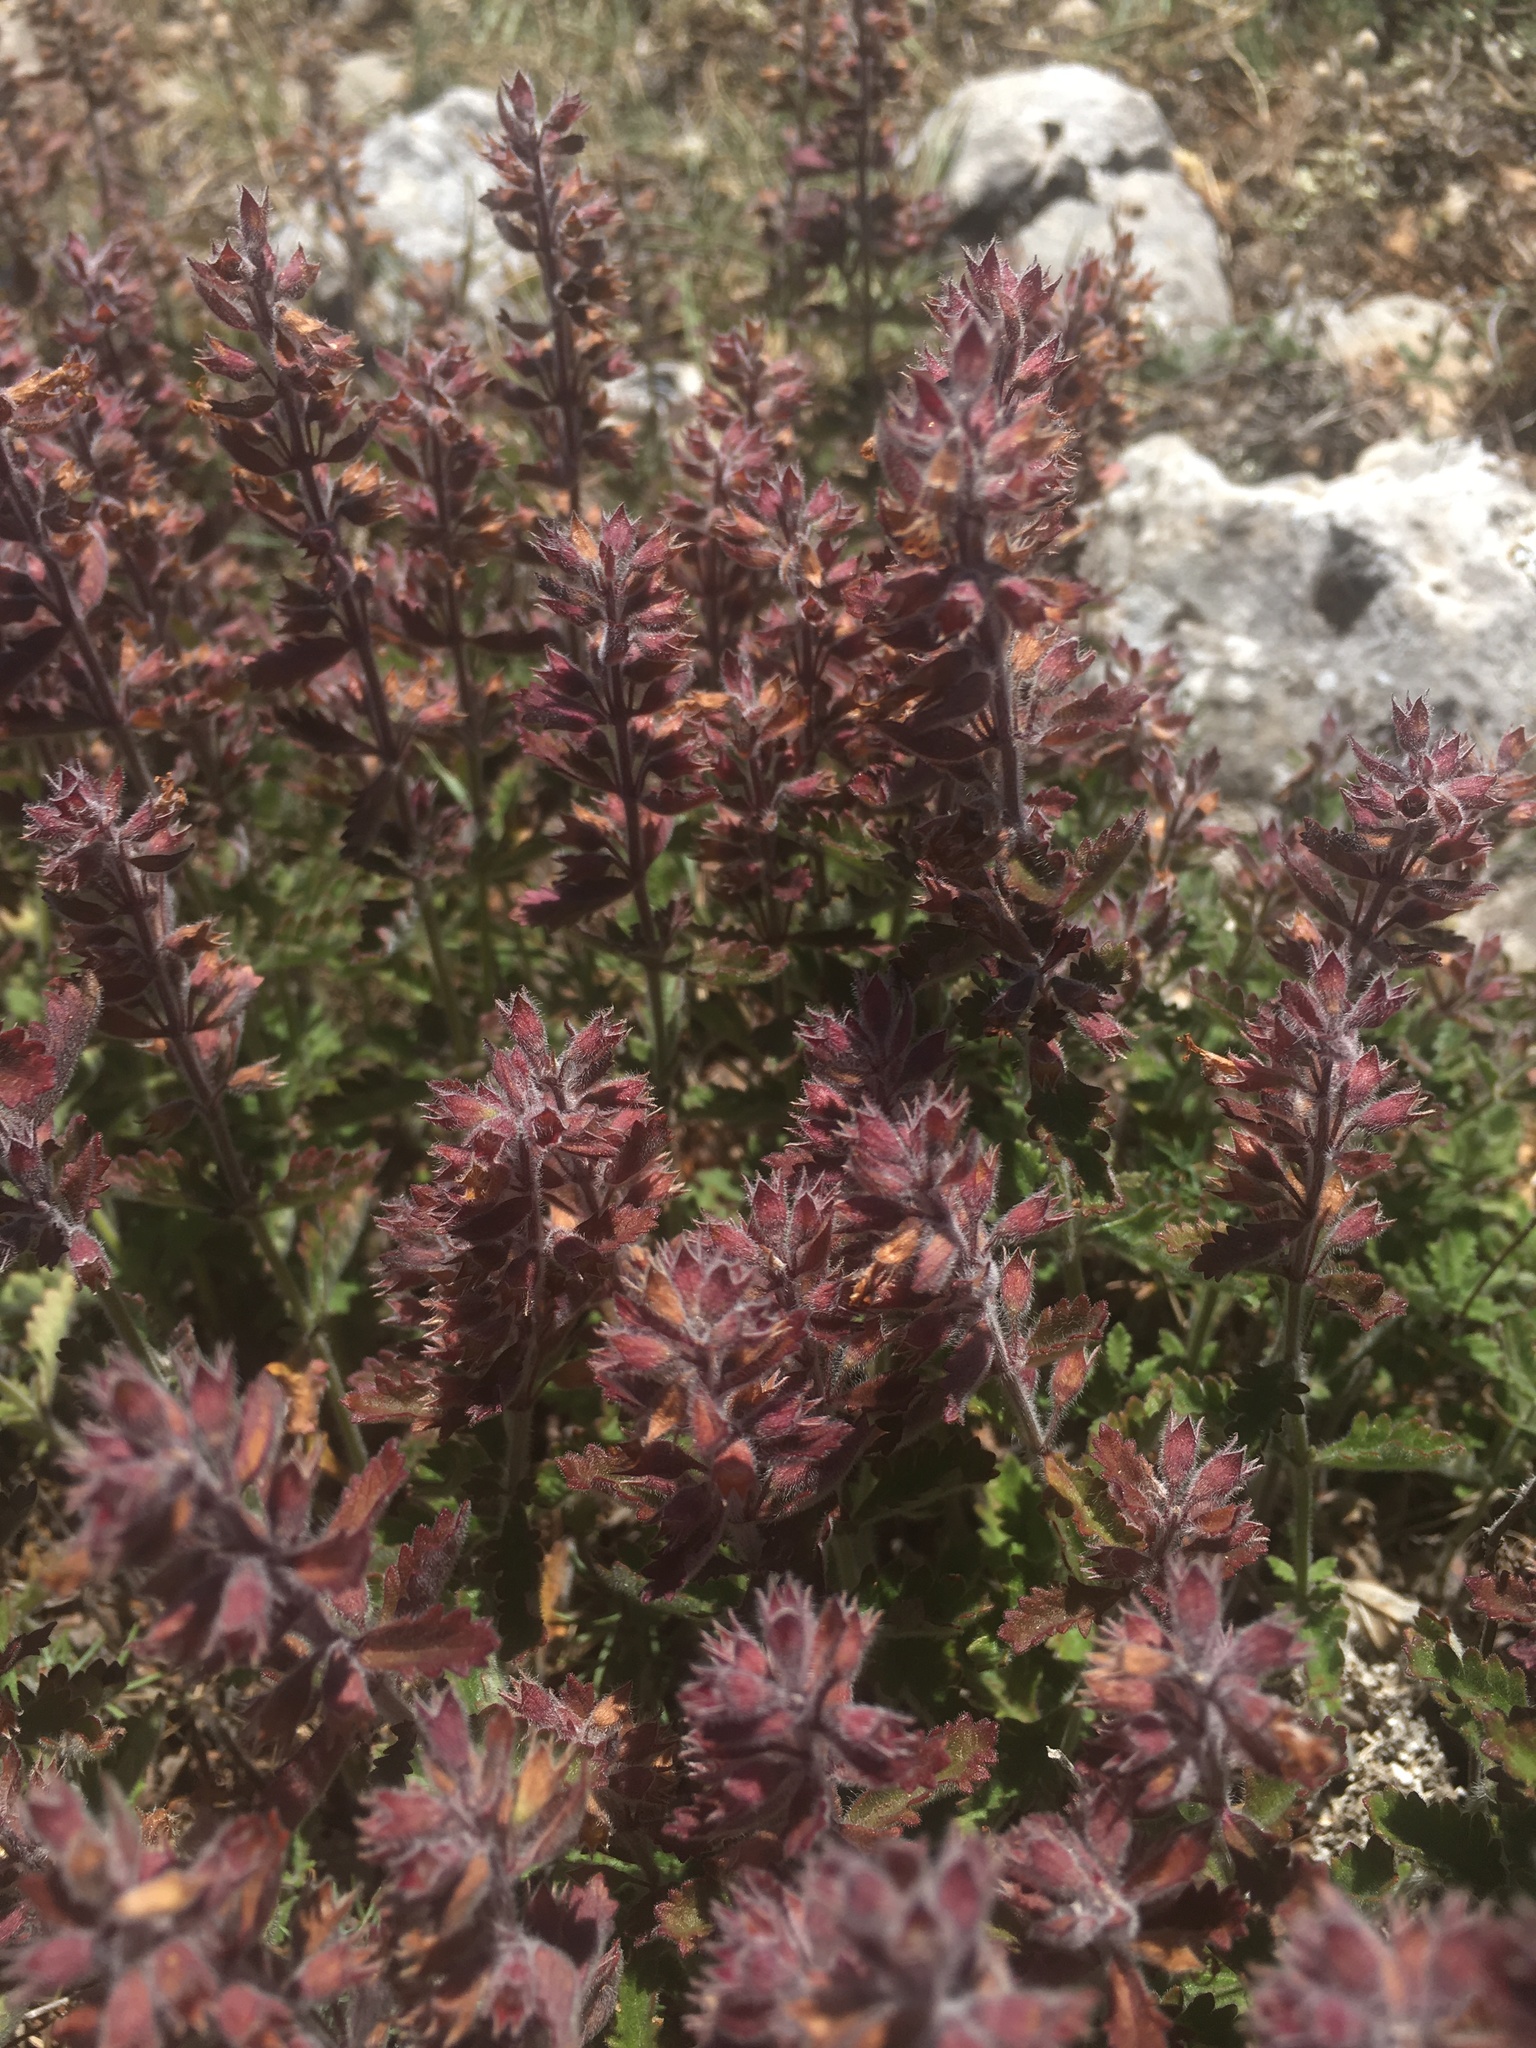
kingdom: Plantae
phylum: Tracheophyta
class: Magnoliopsida
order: Lamiales
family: Lamiaceae
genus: Teucrium
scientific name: Teucrium chamaedrys
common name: Wall germander
